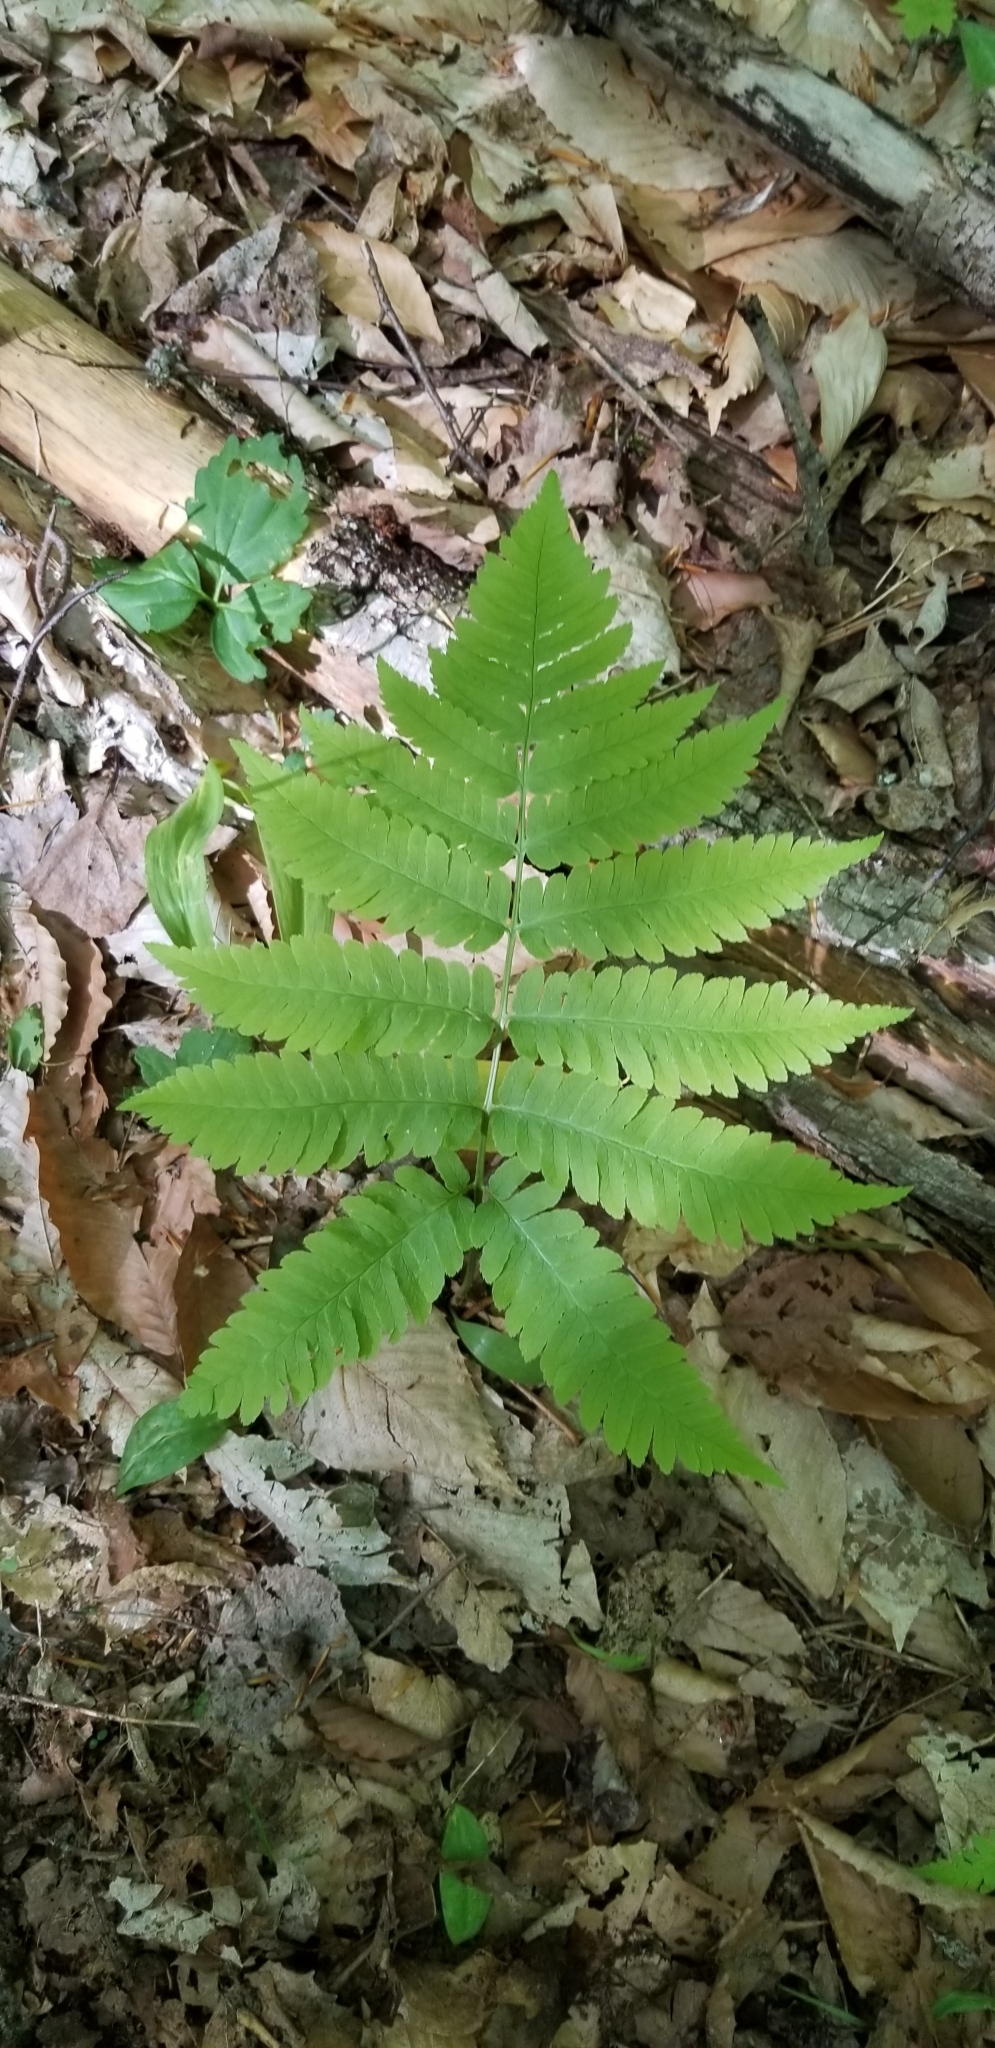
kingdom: Plantae
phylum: Tracheophyta
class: Polypodiopsida
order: Polypodiales
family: Dryopteridaceae
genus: Dryopteris
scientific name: Dryopteris goldieana
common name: Goldie's fern
